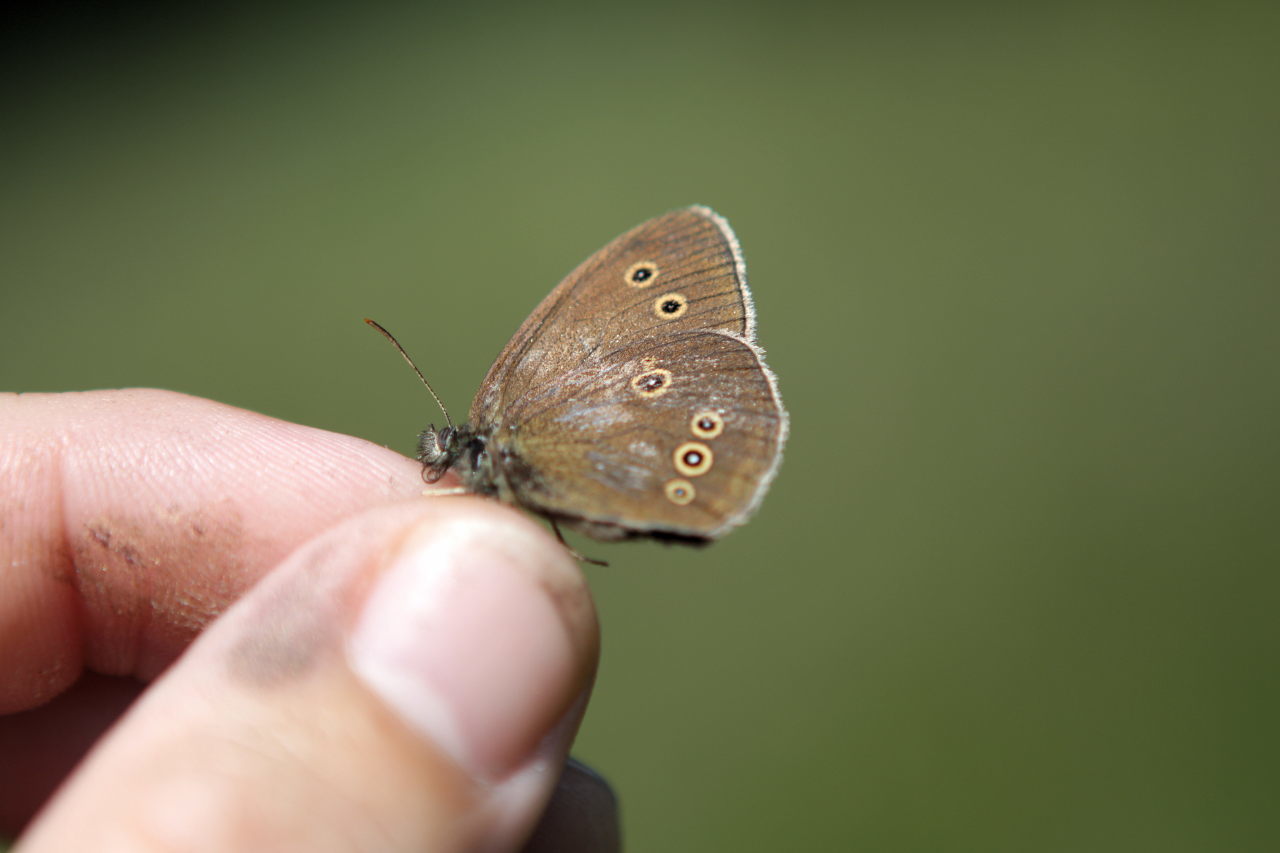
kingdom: Animalia
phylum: Arthropoda
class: Insecta
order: Lepidoptera
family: Nymphalidae
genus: Aphantopus
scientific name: Aphantopus hyperantus
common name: Ringlet
